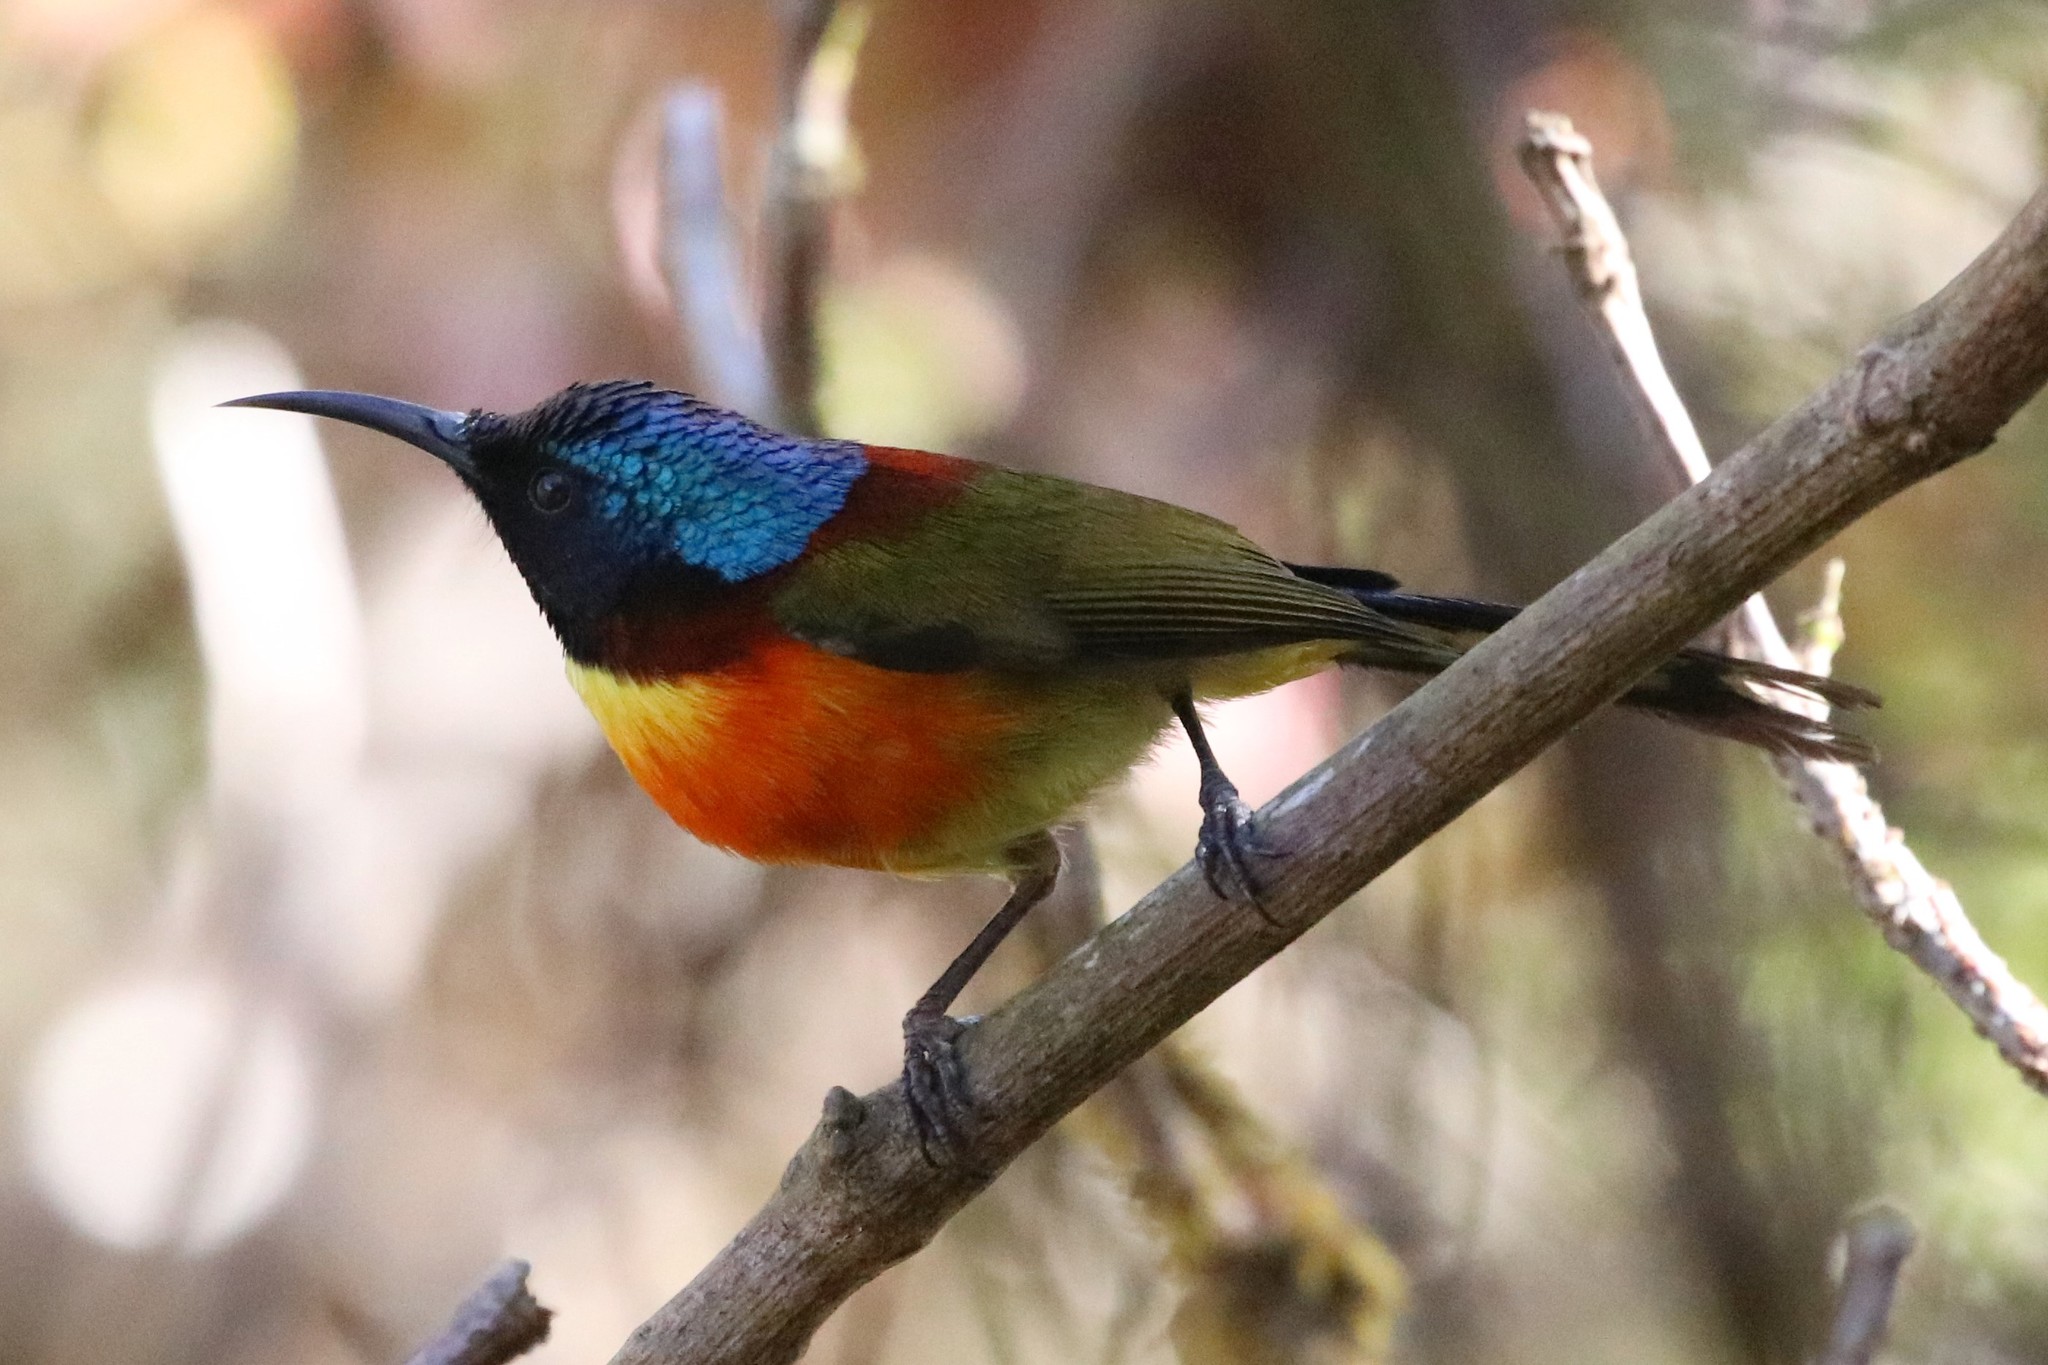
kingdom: Animalia
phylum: Chordata
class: Aves
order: Passeriformes
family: Nectariniidae
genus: Aethopyga
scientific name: Aethopyga nipalensis
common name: Green-tailed sunbird
